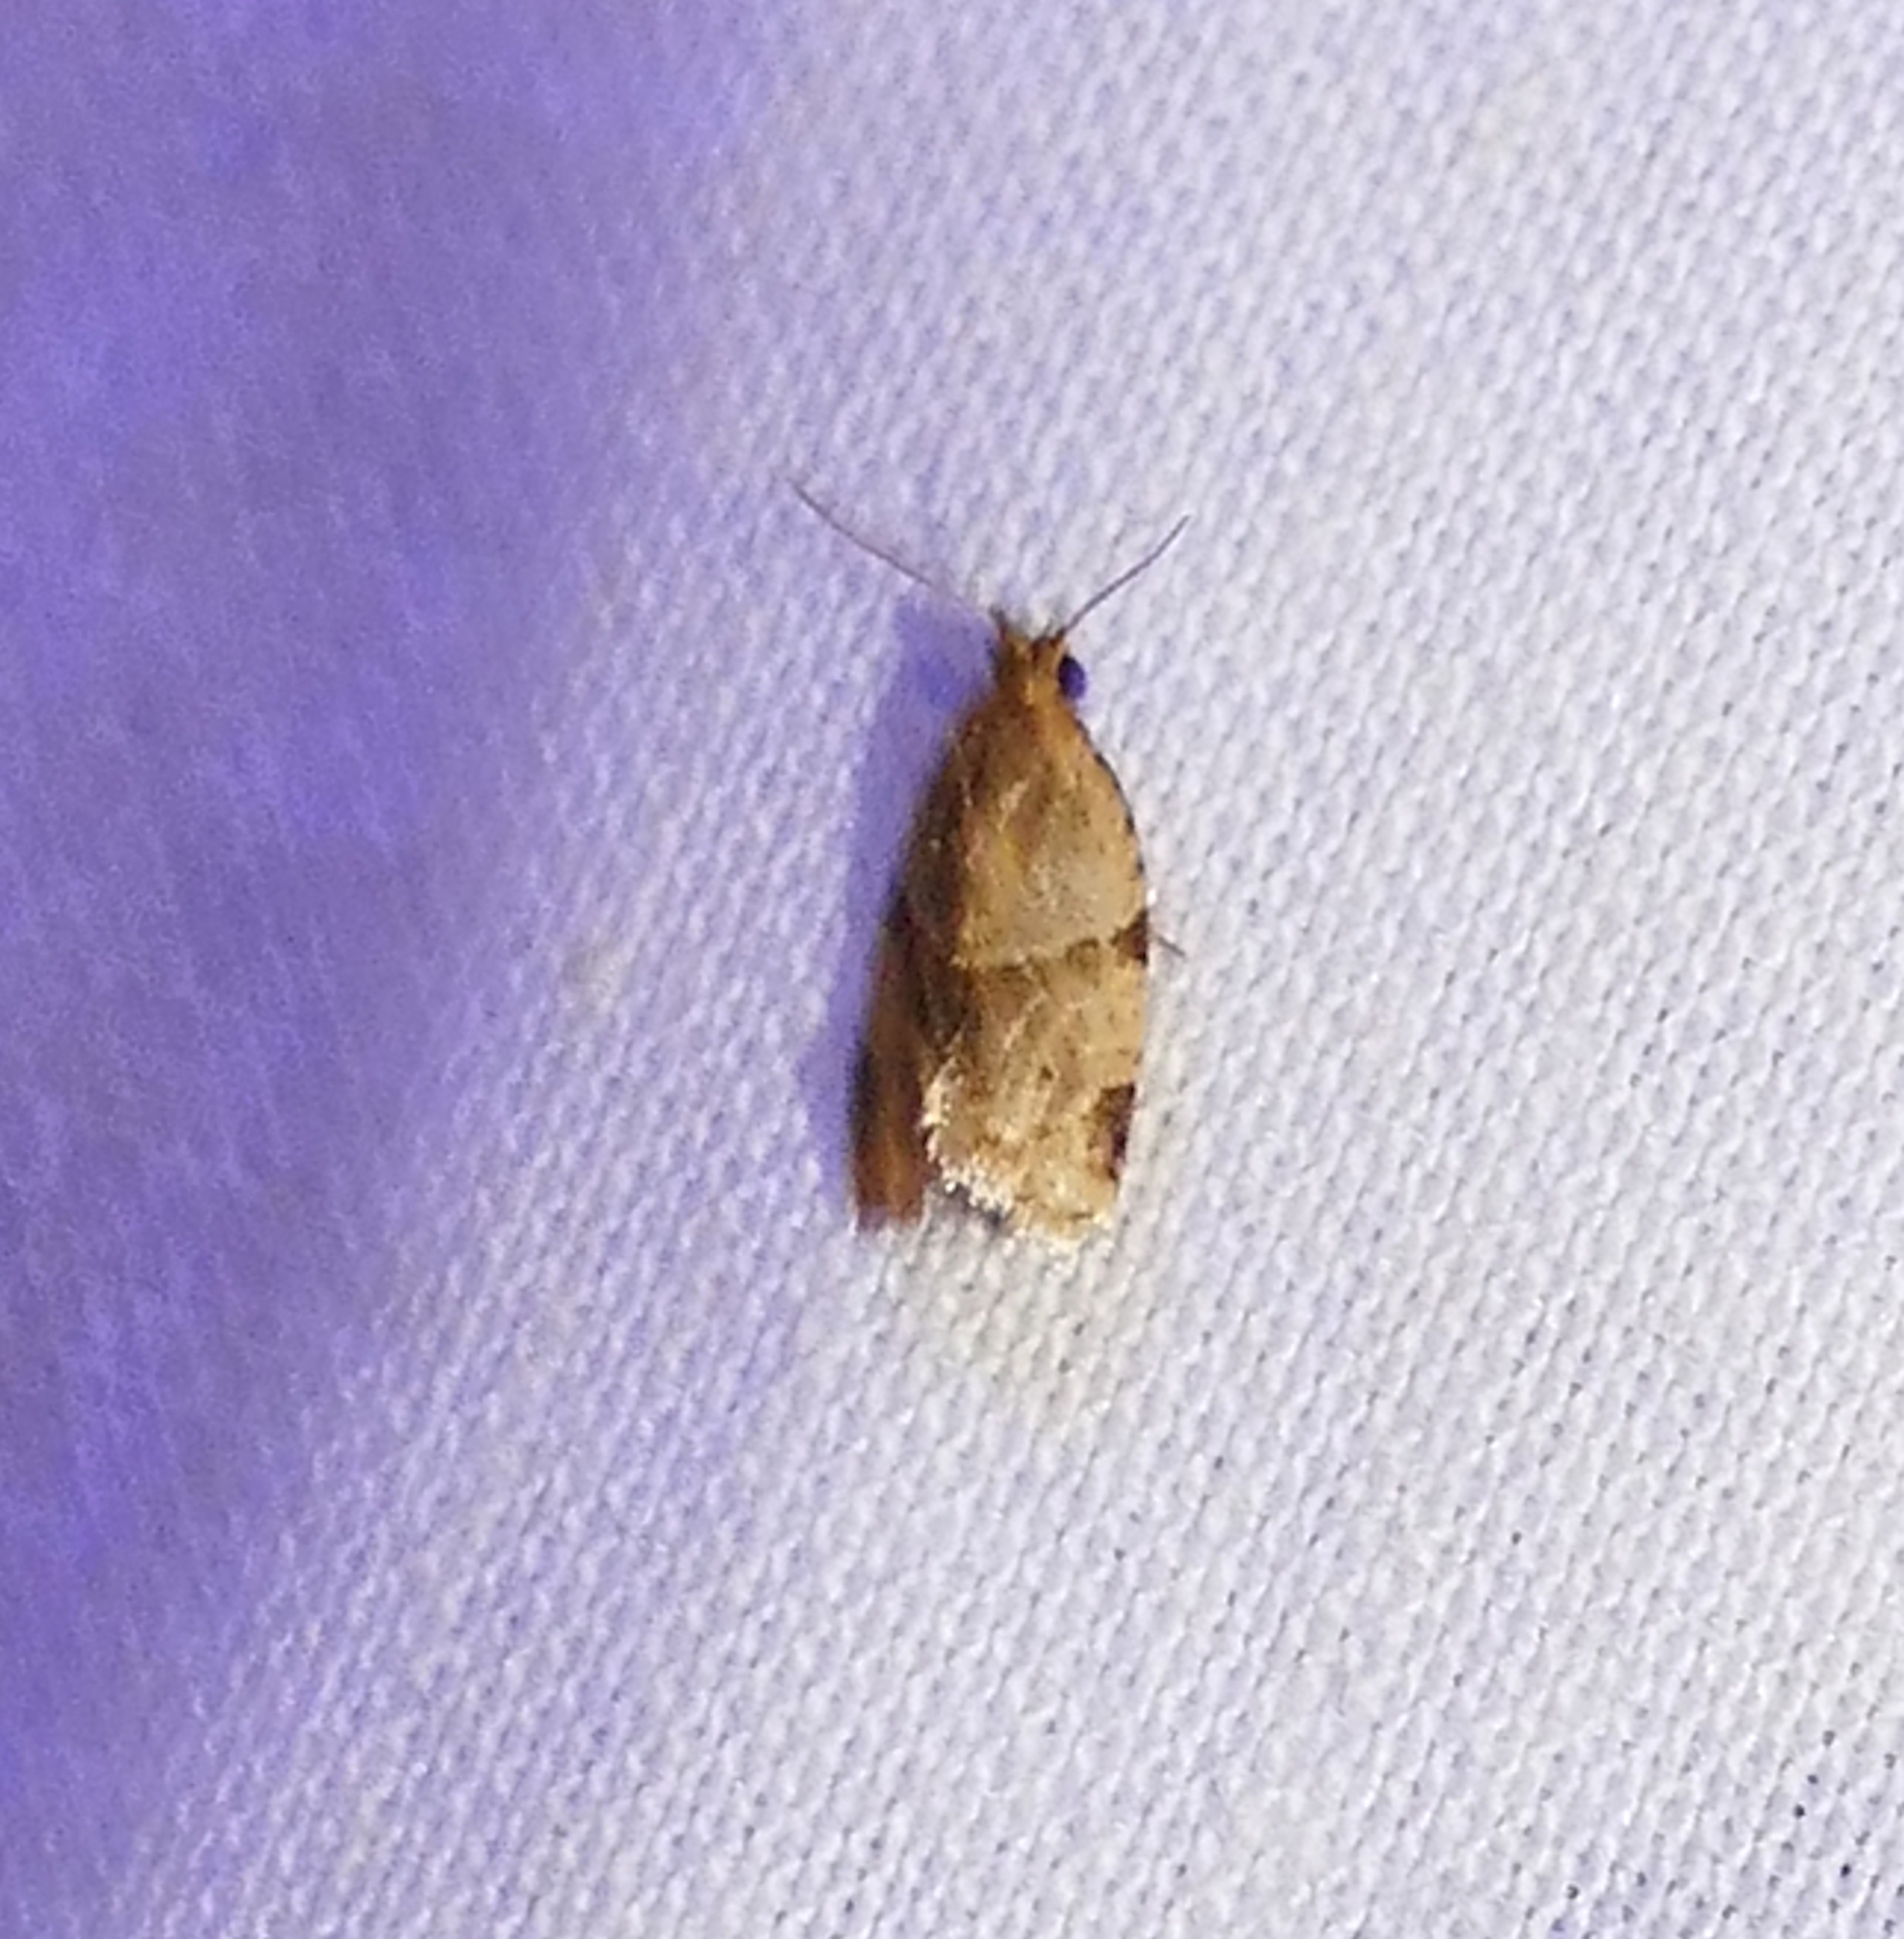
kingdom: Animalia
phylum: Arthropoda
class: Insecta
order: Lepidoptera
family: Tortricidae
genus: Clepsis
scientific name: Clepsis peritana
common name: Garden tortrix
